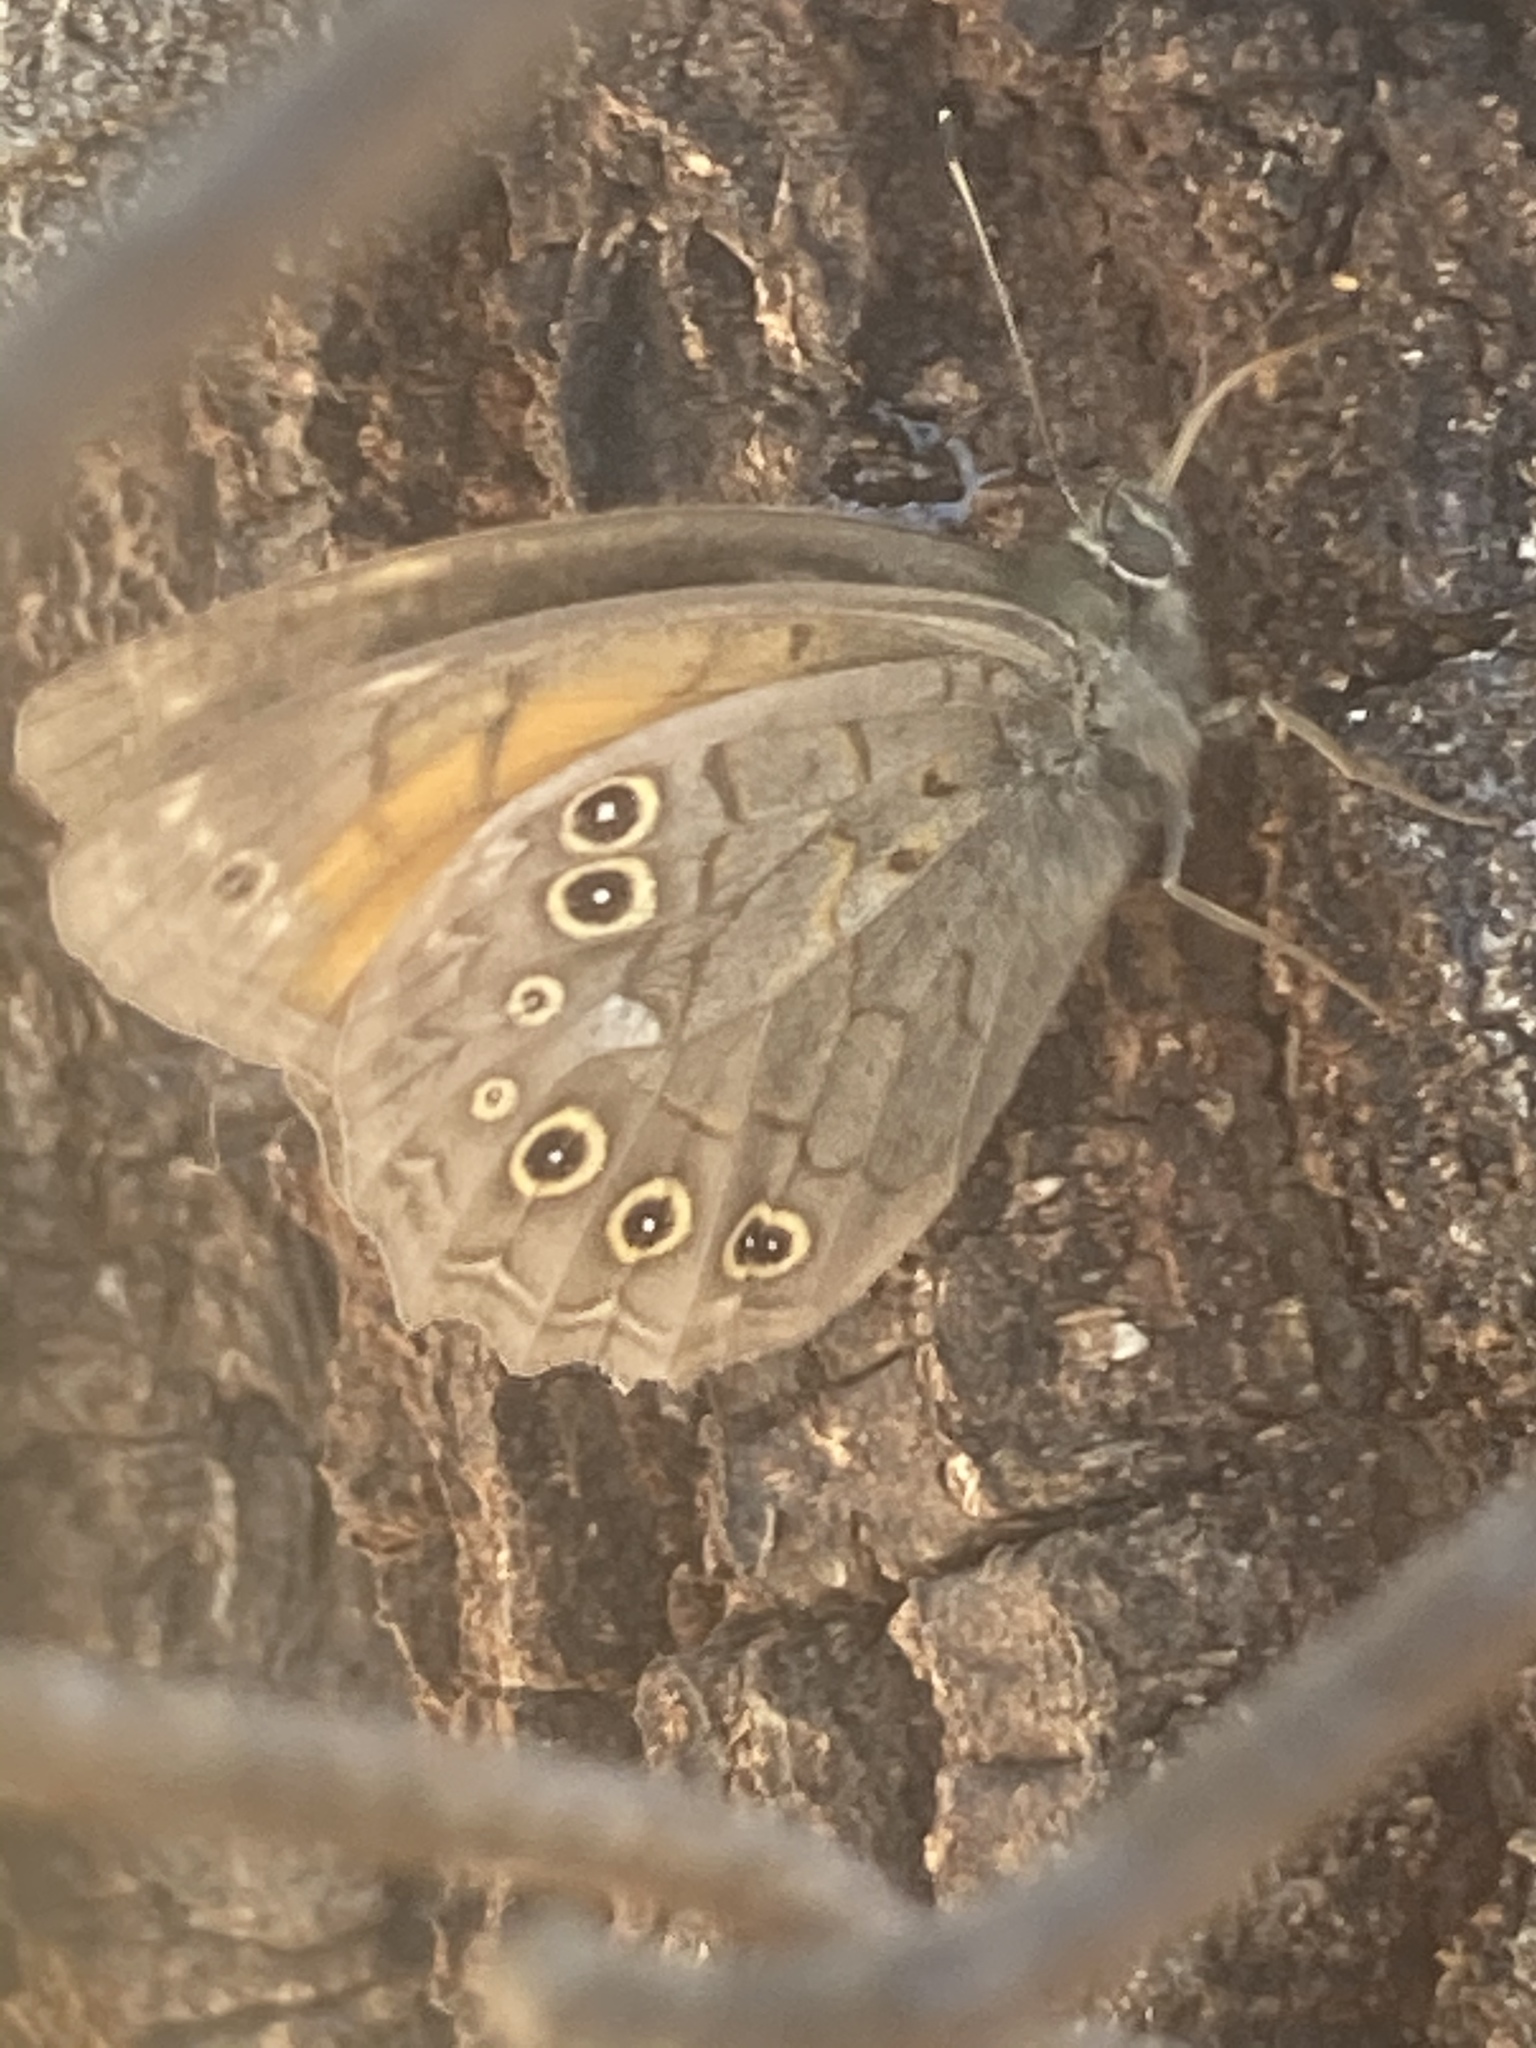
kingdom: Animalia
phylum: Arthropoda
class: Insecta
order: Lepidoptera
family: Nymphalidae
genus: Kirinia
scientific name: Kirinia roxelana
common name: Lattice brown
